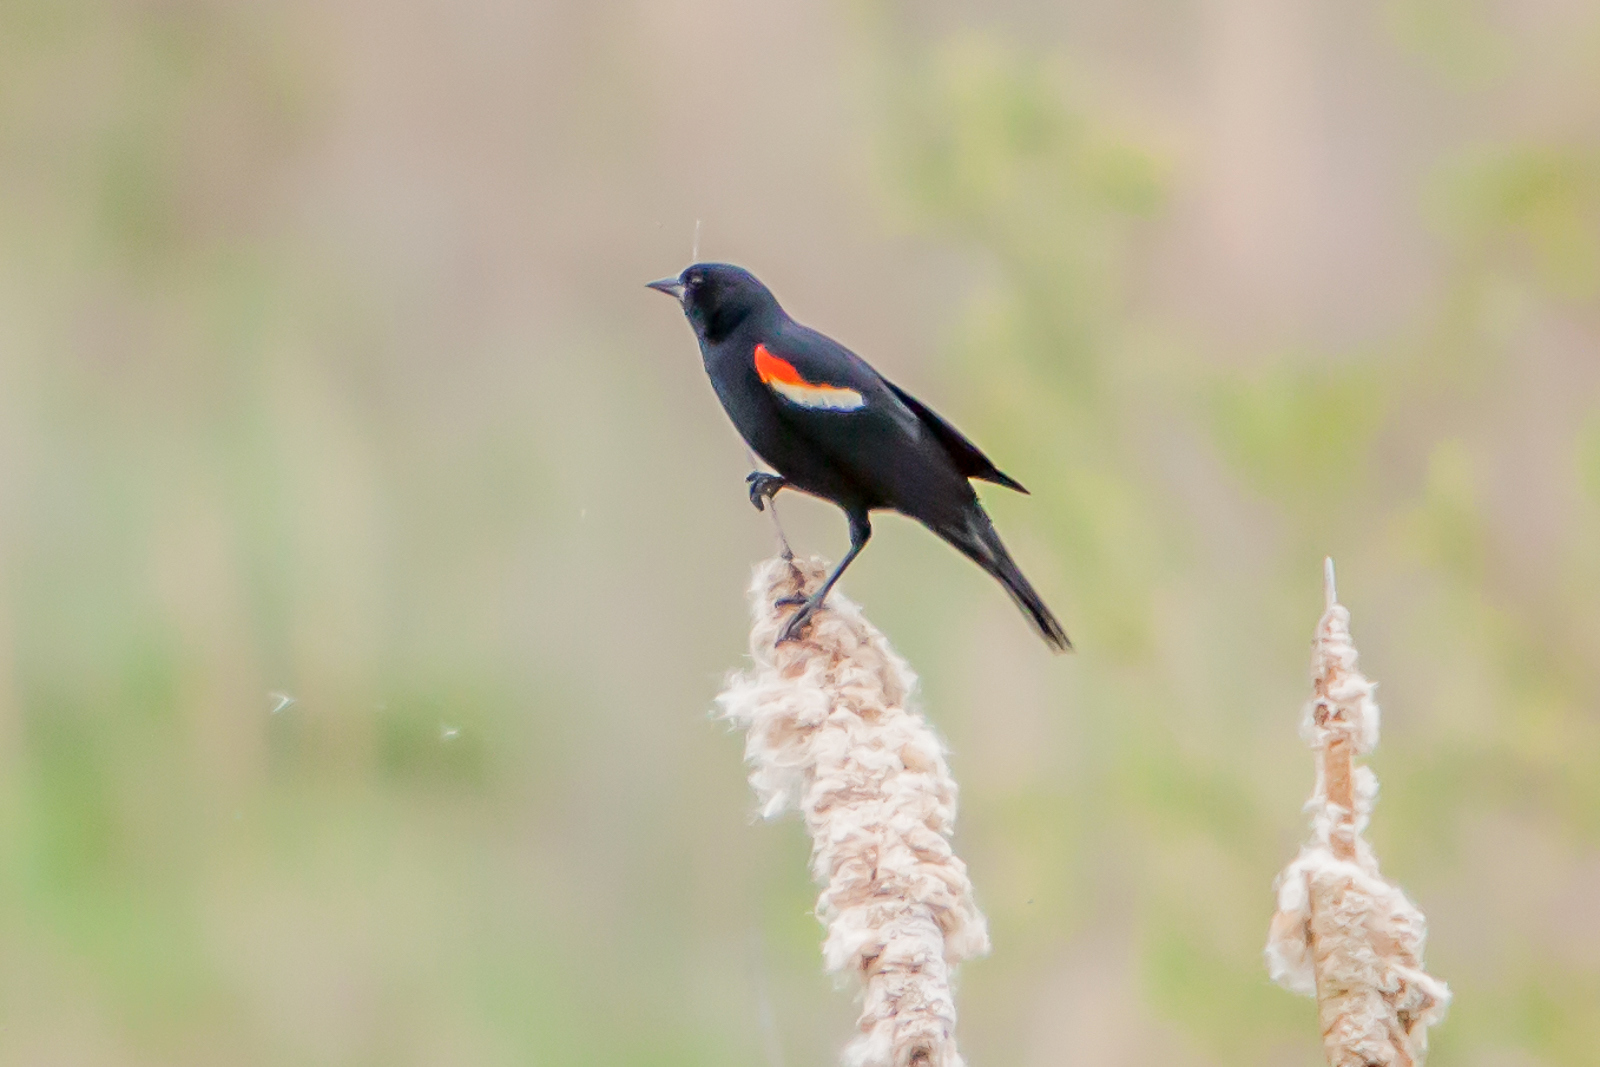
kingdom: Animalia
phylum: Chordata
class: Aves
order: Passeriformes
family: Icteridae
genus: Agelaius
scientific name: Agelaius phoeniceus
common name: Red-winged blackbird
